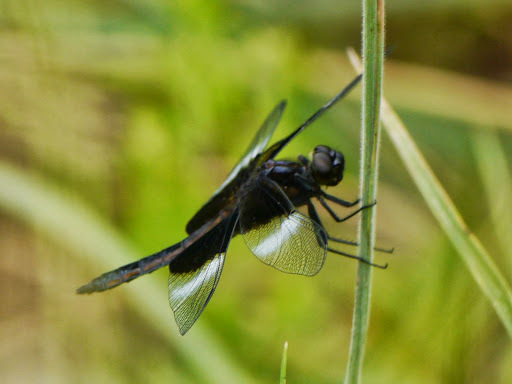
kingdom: Animalia
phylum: Arthropoda
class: Insecta
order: Odonata
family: Libellulidae
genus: Libellula
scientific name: Libellula luctuosa
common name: Widow skimmer
